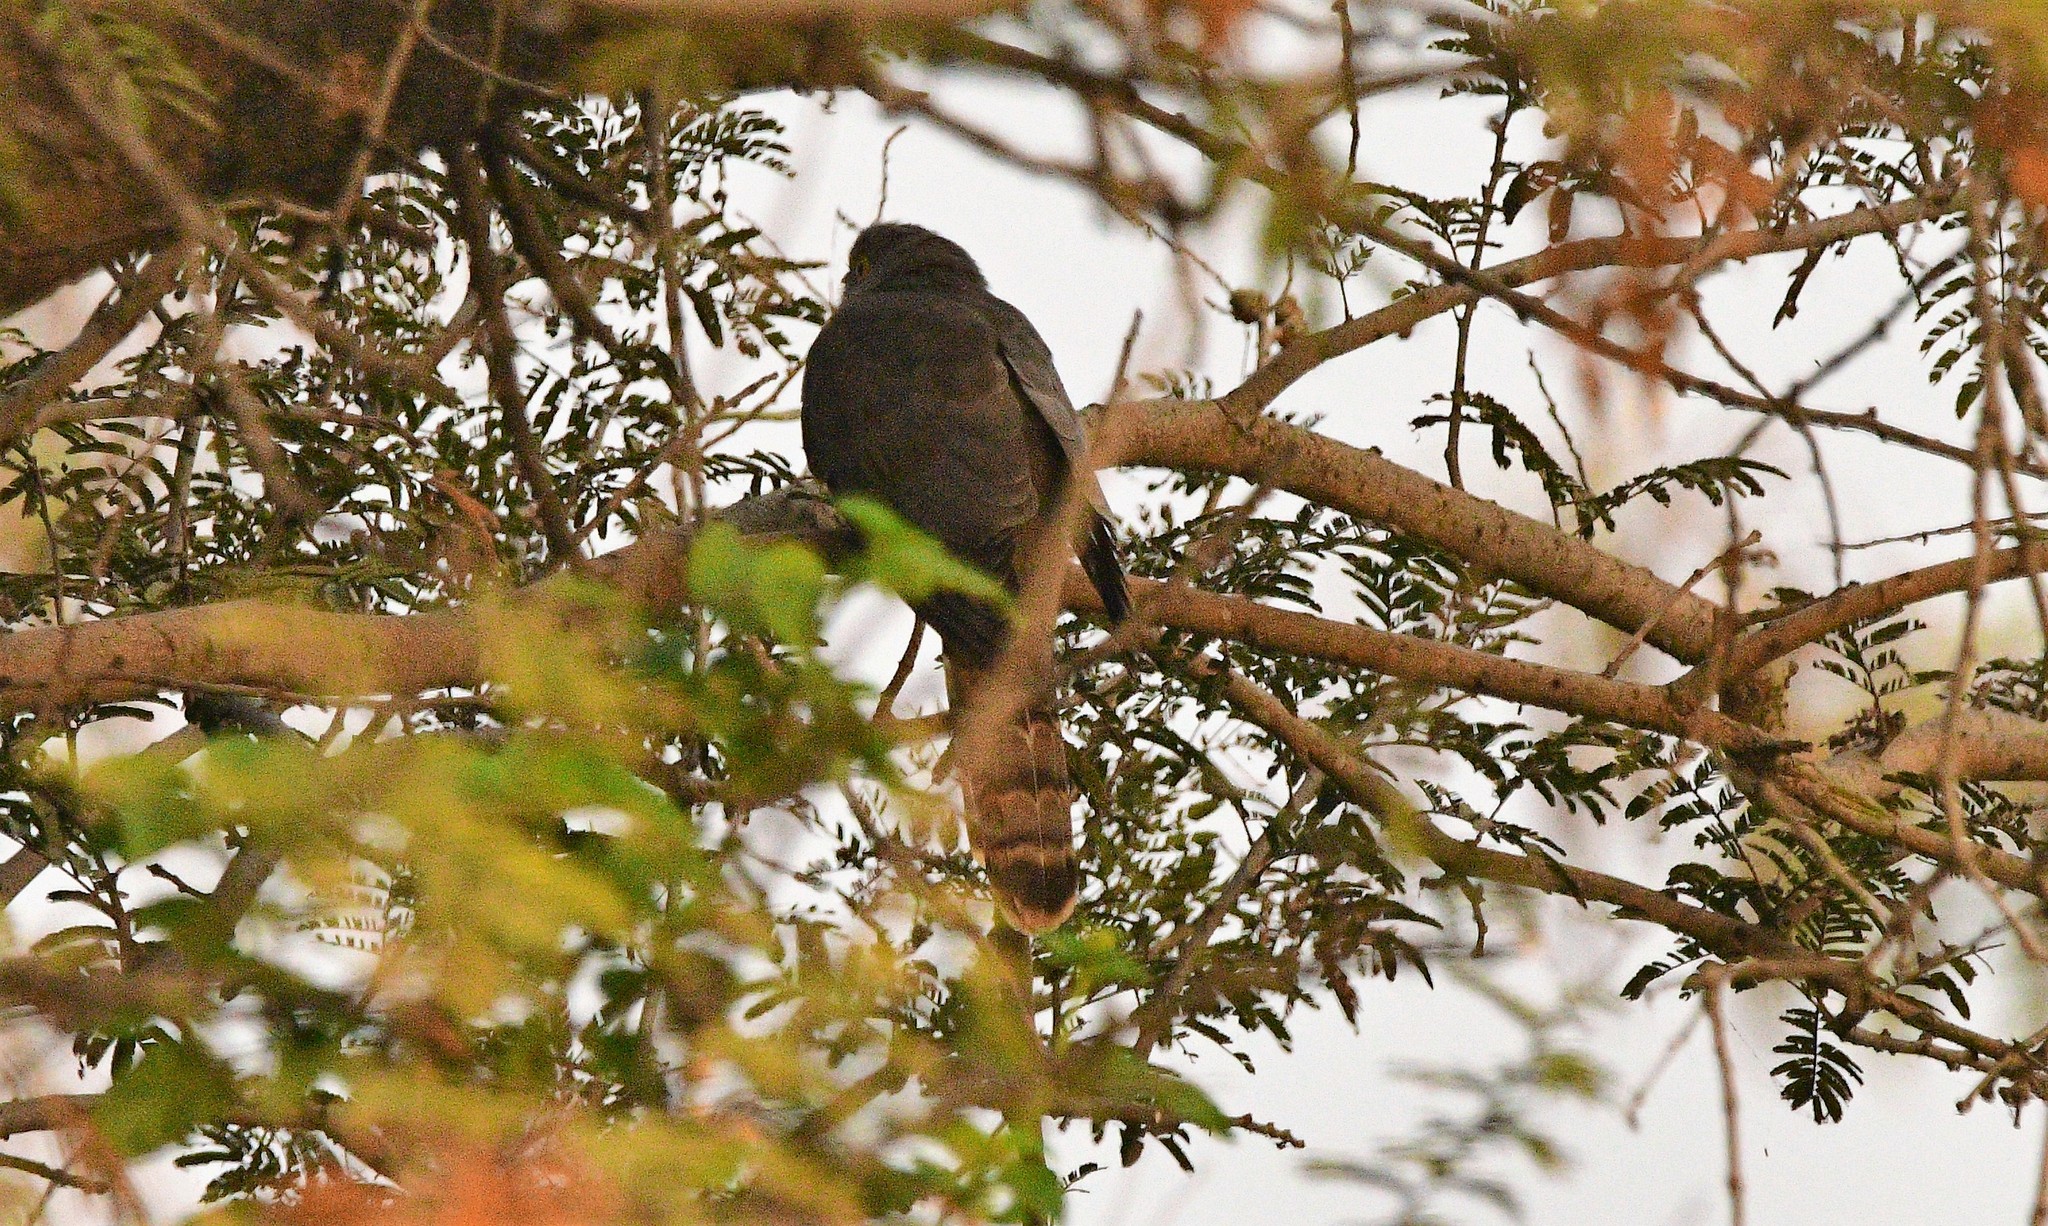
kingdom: Animalia
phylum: Chordata
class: Aves
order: Cuculiformes
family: Cuculidae
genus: Cuculus
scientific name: Cuculus varius
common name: Common hawk cuckoo
